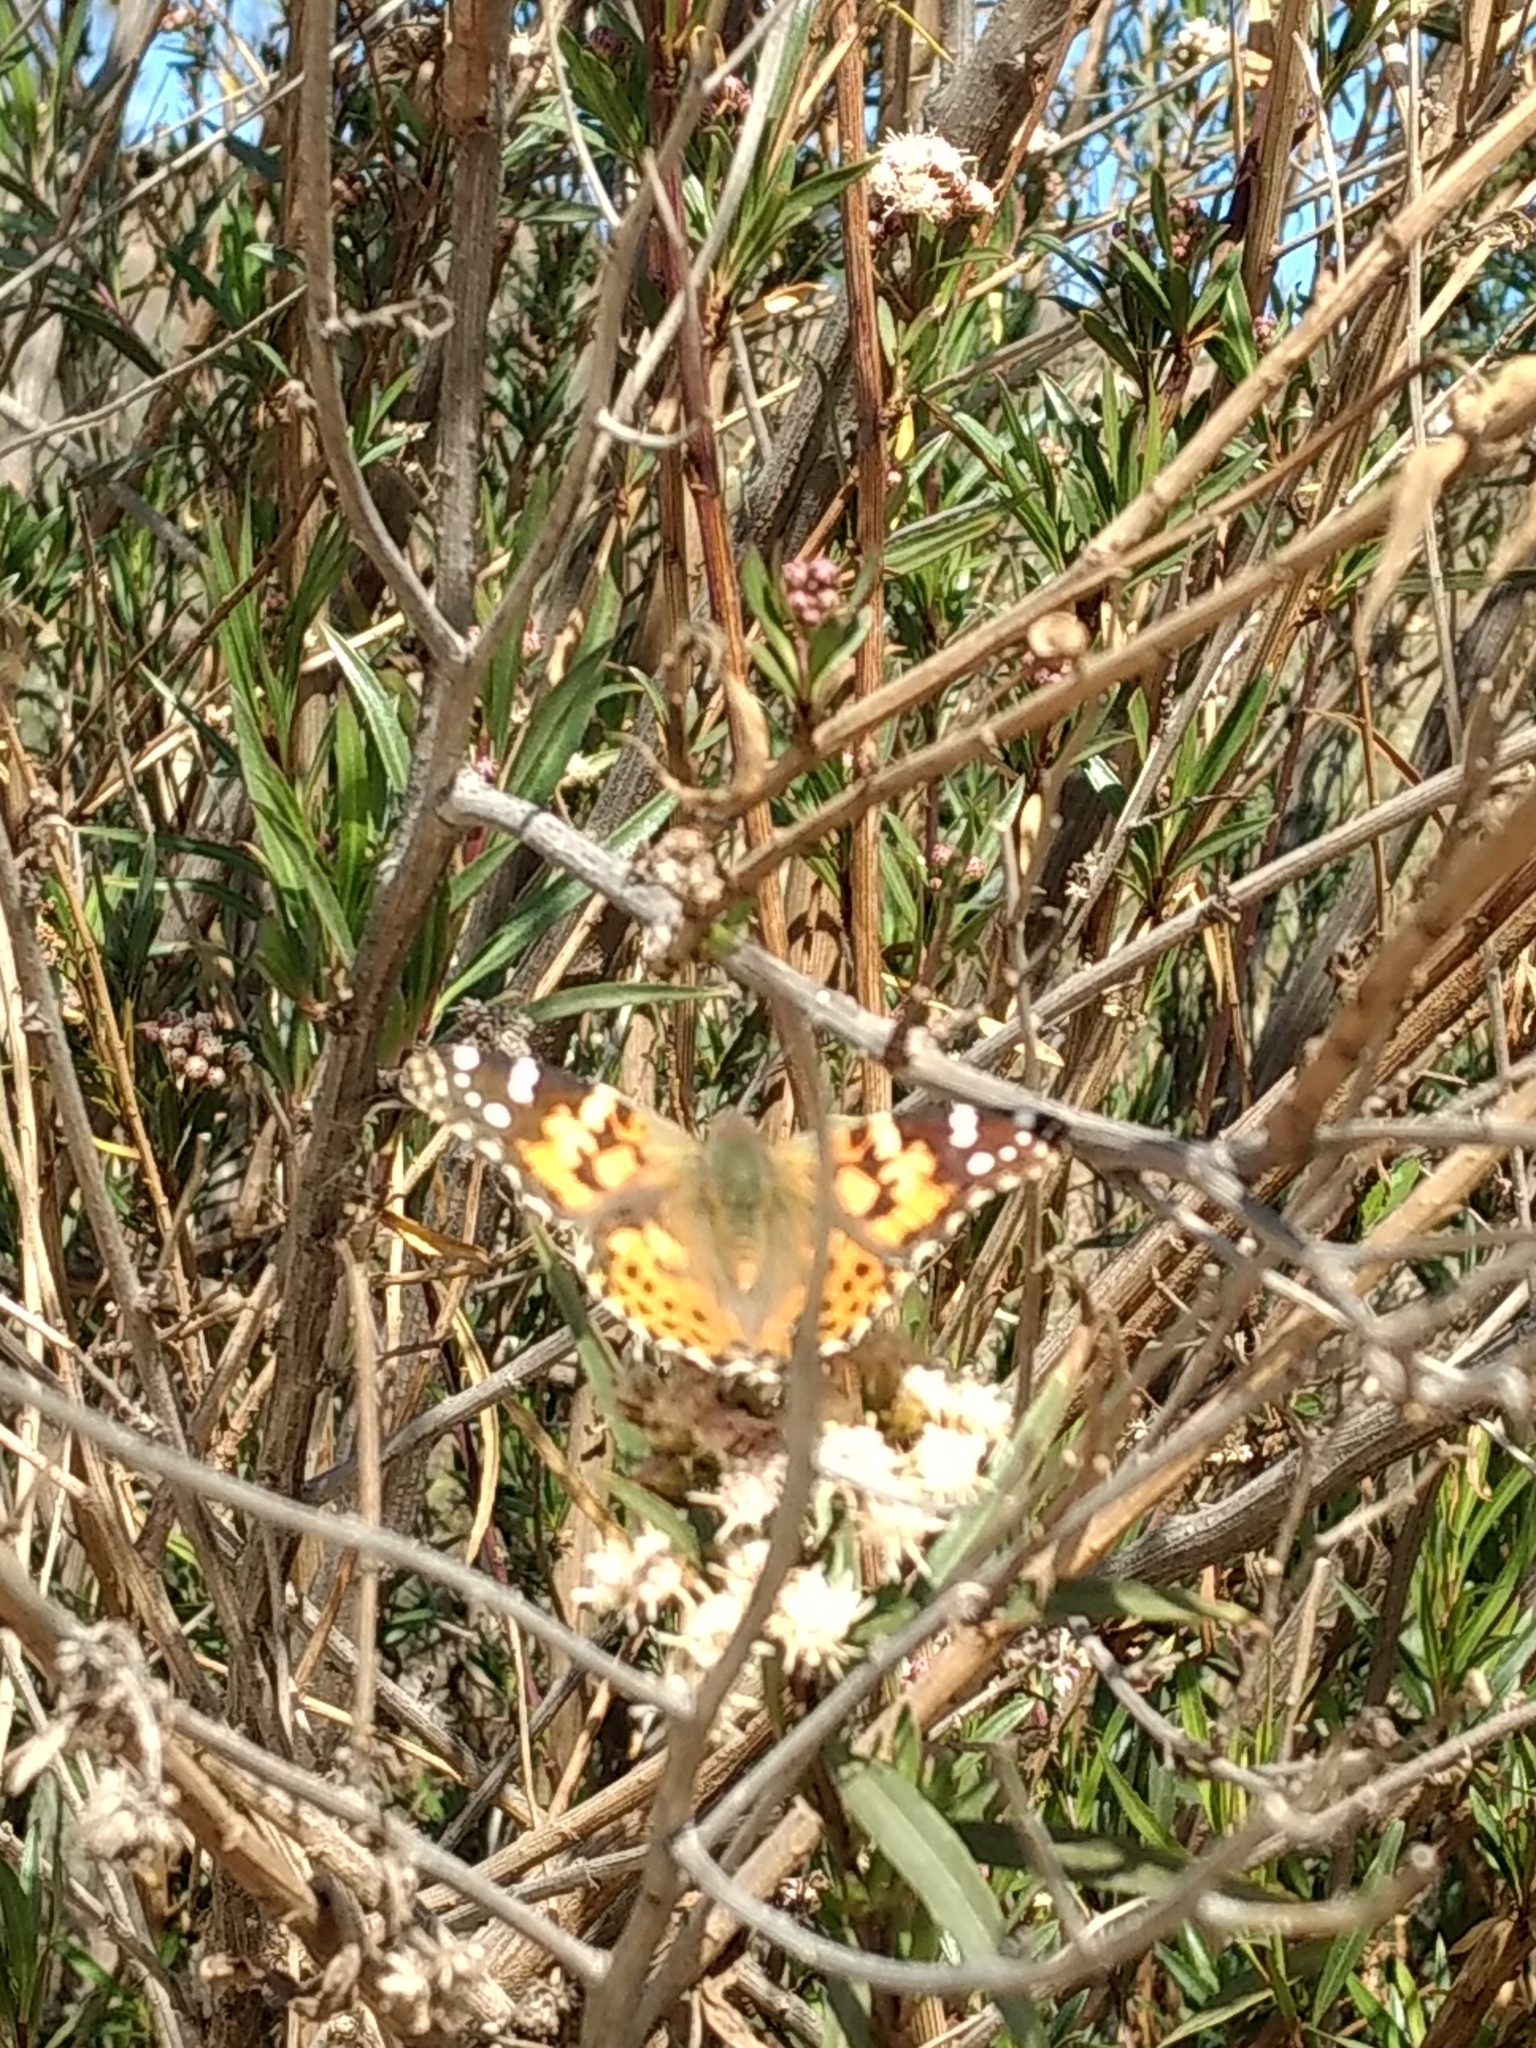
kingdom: Animalia
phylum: Arthropoda
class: Insecta
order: Lepidoptera
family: Nymphalidae
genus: Vanessa
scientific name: Vanessa cardui
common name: Painted lady
